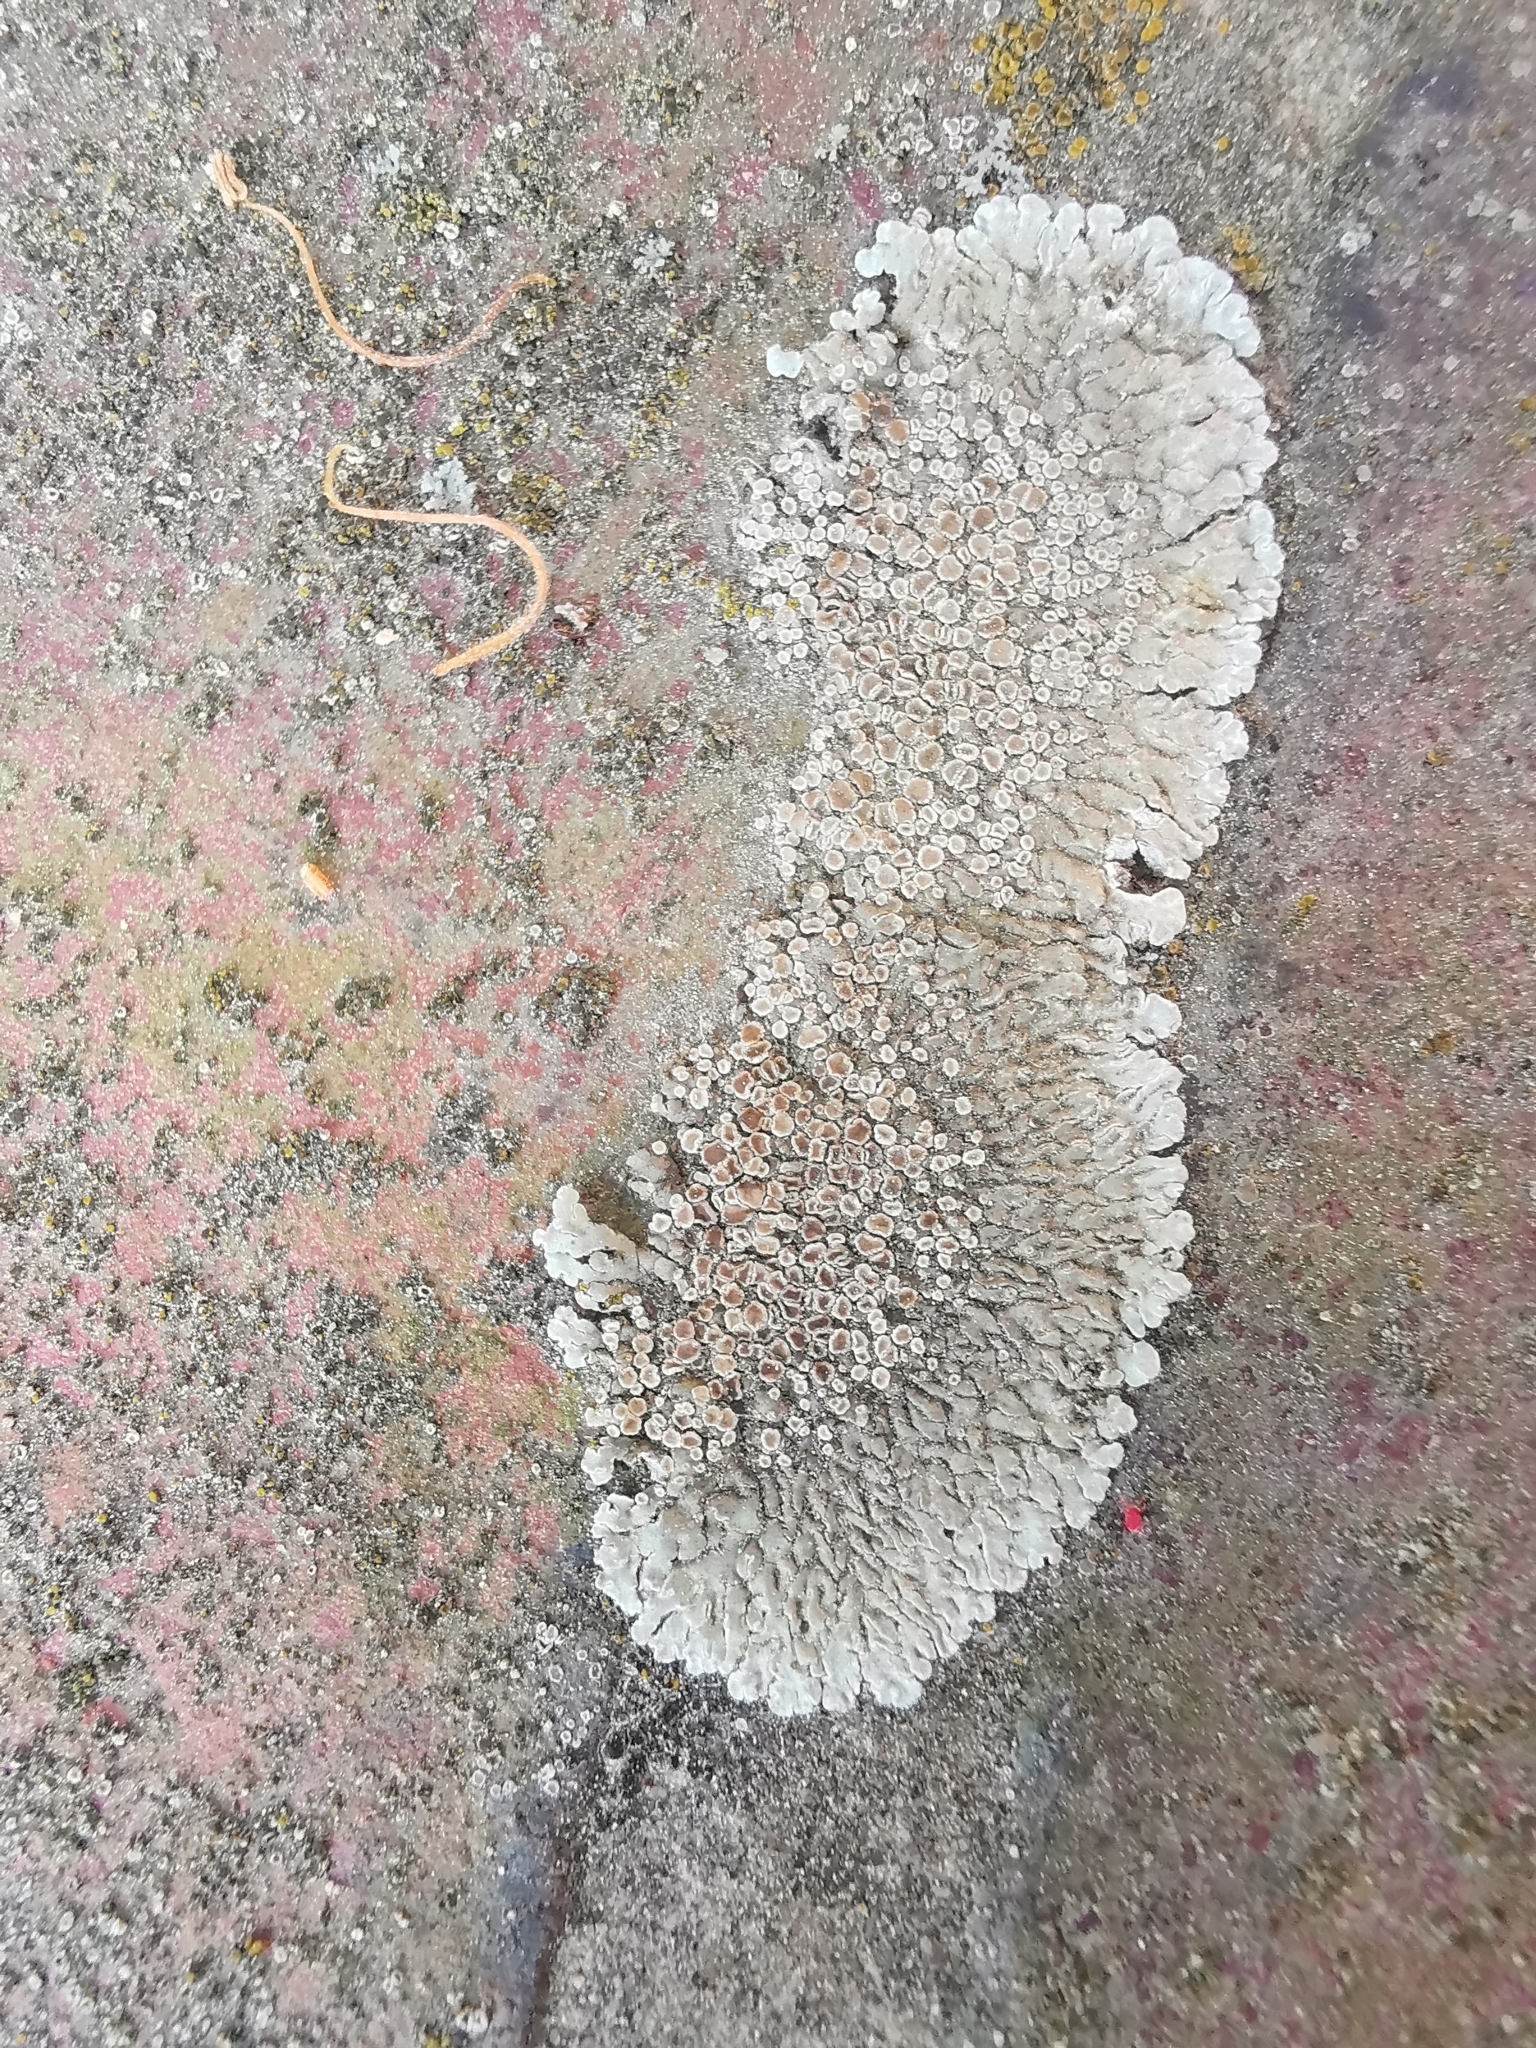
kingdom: Fungi
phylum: Ascomycota
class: Lecanoromycetes
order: Lecanorales
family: Lecanoraceae
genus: Protoparmeliopsis
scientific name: Protoparmeliopsis muralis
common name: Stonewall rim lichen
